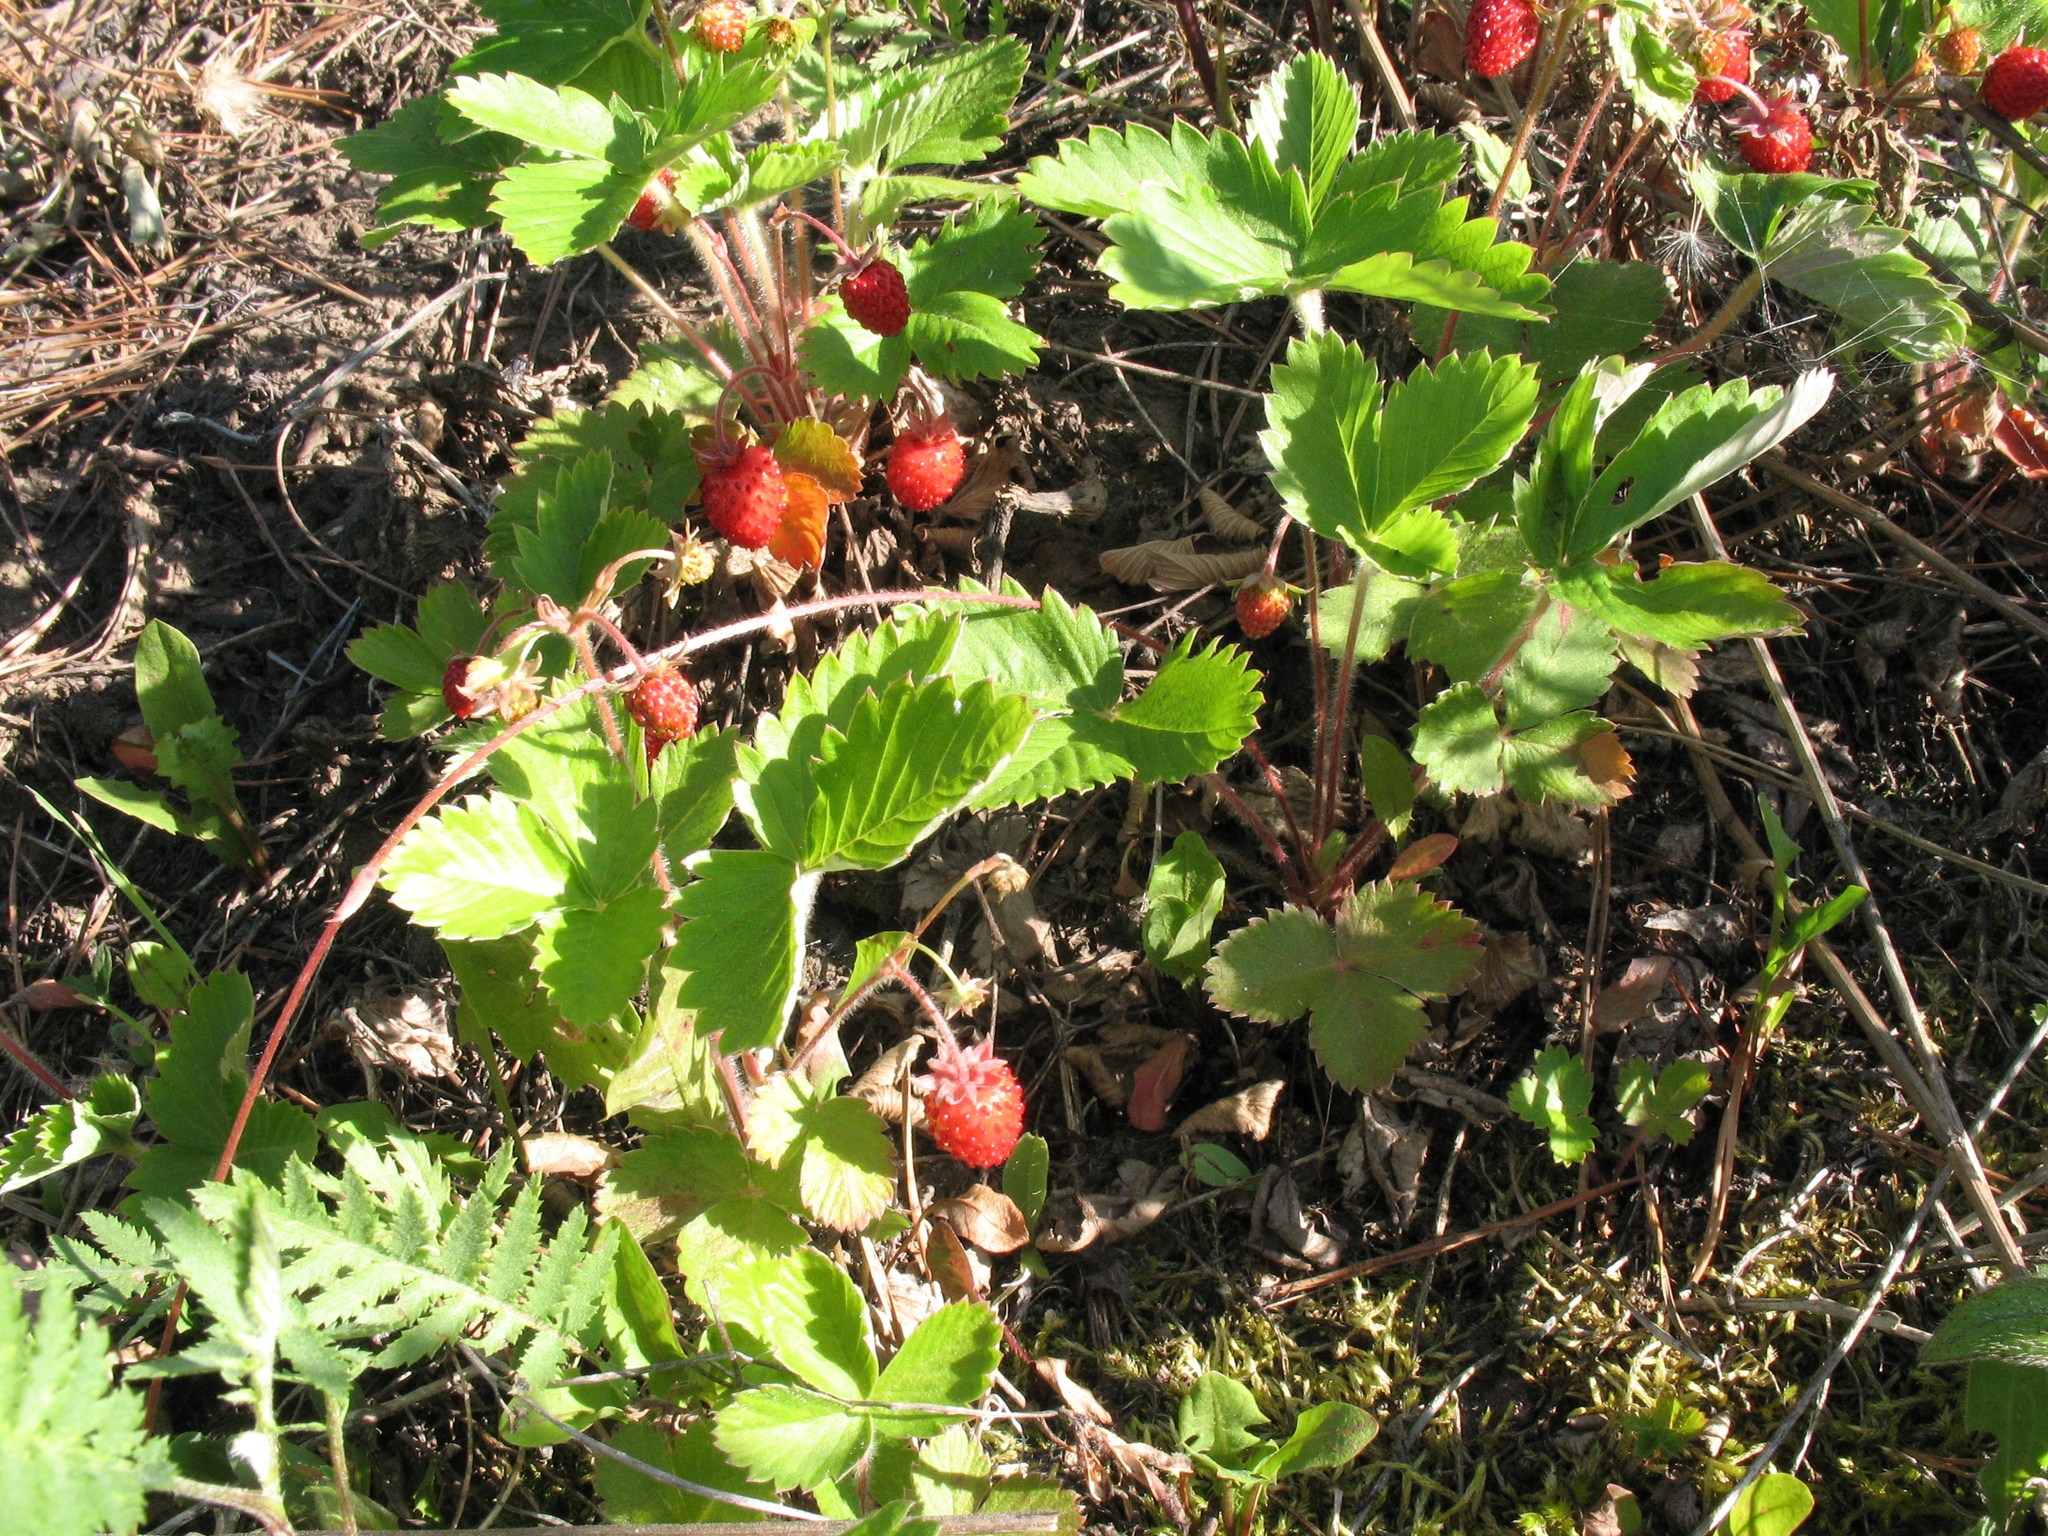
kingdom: Plantae
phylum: Tracheophyta
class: Magnoliopsida
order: Rosales
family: Rosaceae
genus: Fragaria
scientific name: Fragaria vesca
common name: Wild strawberry
